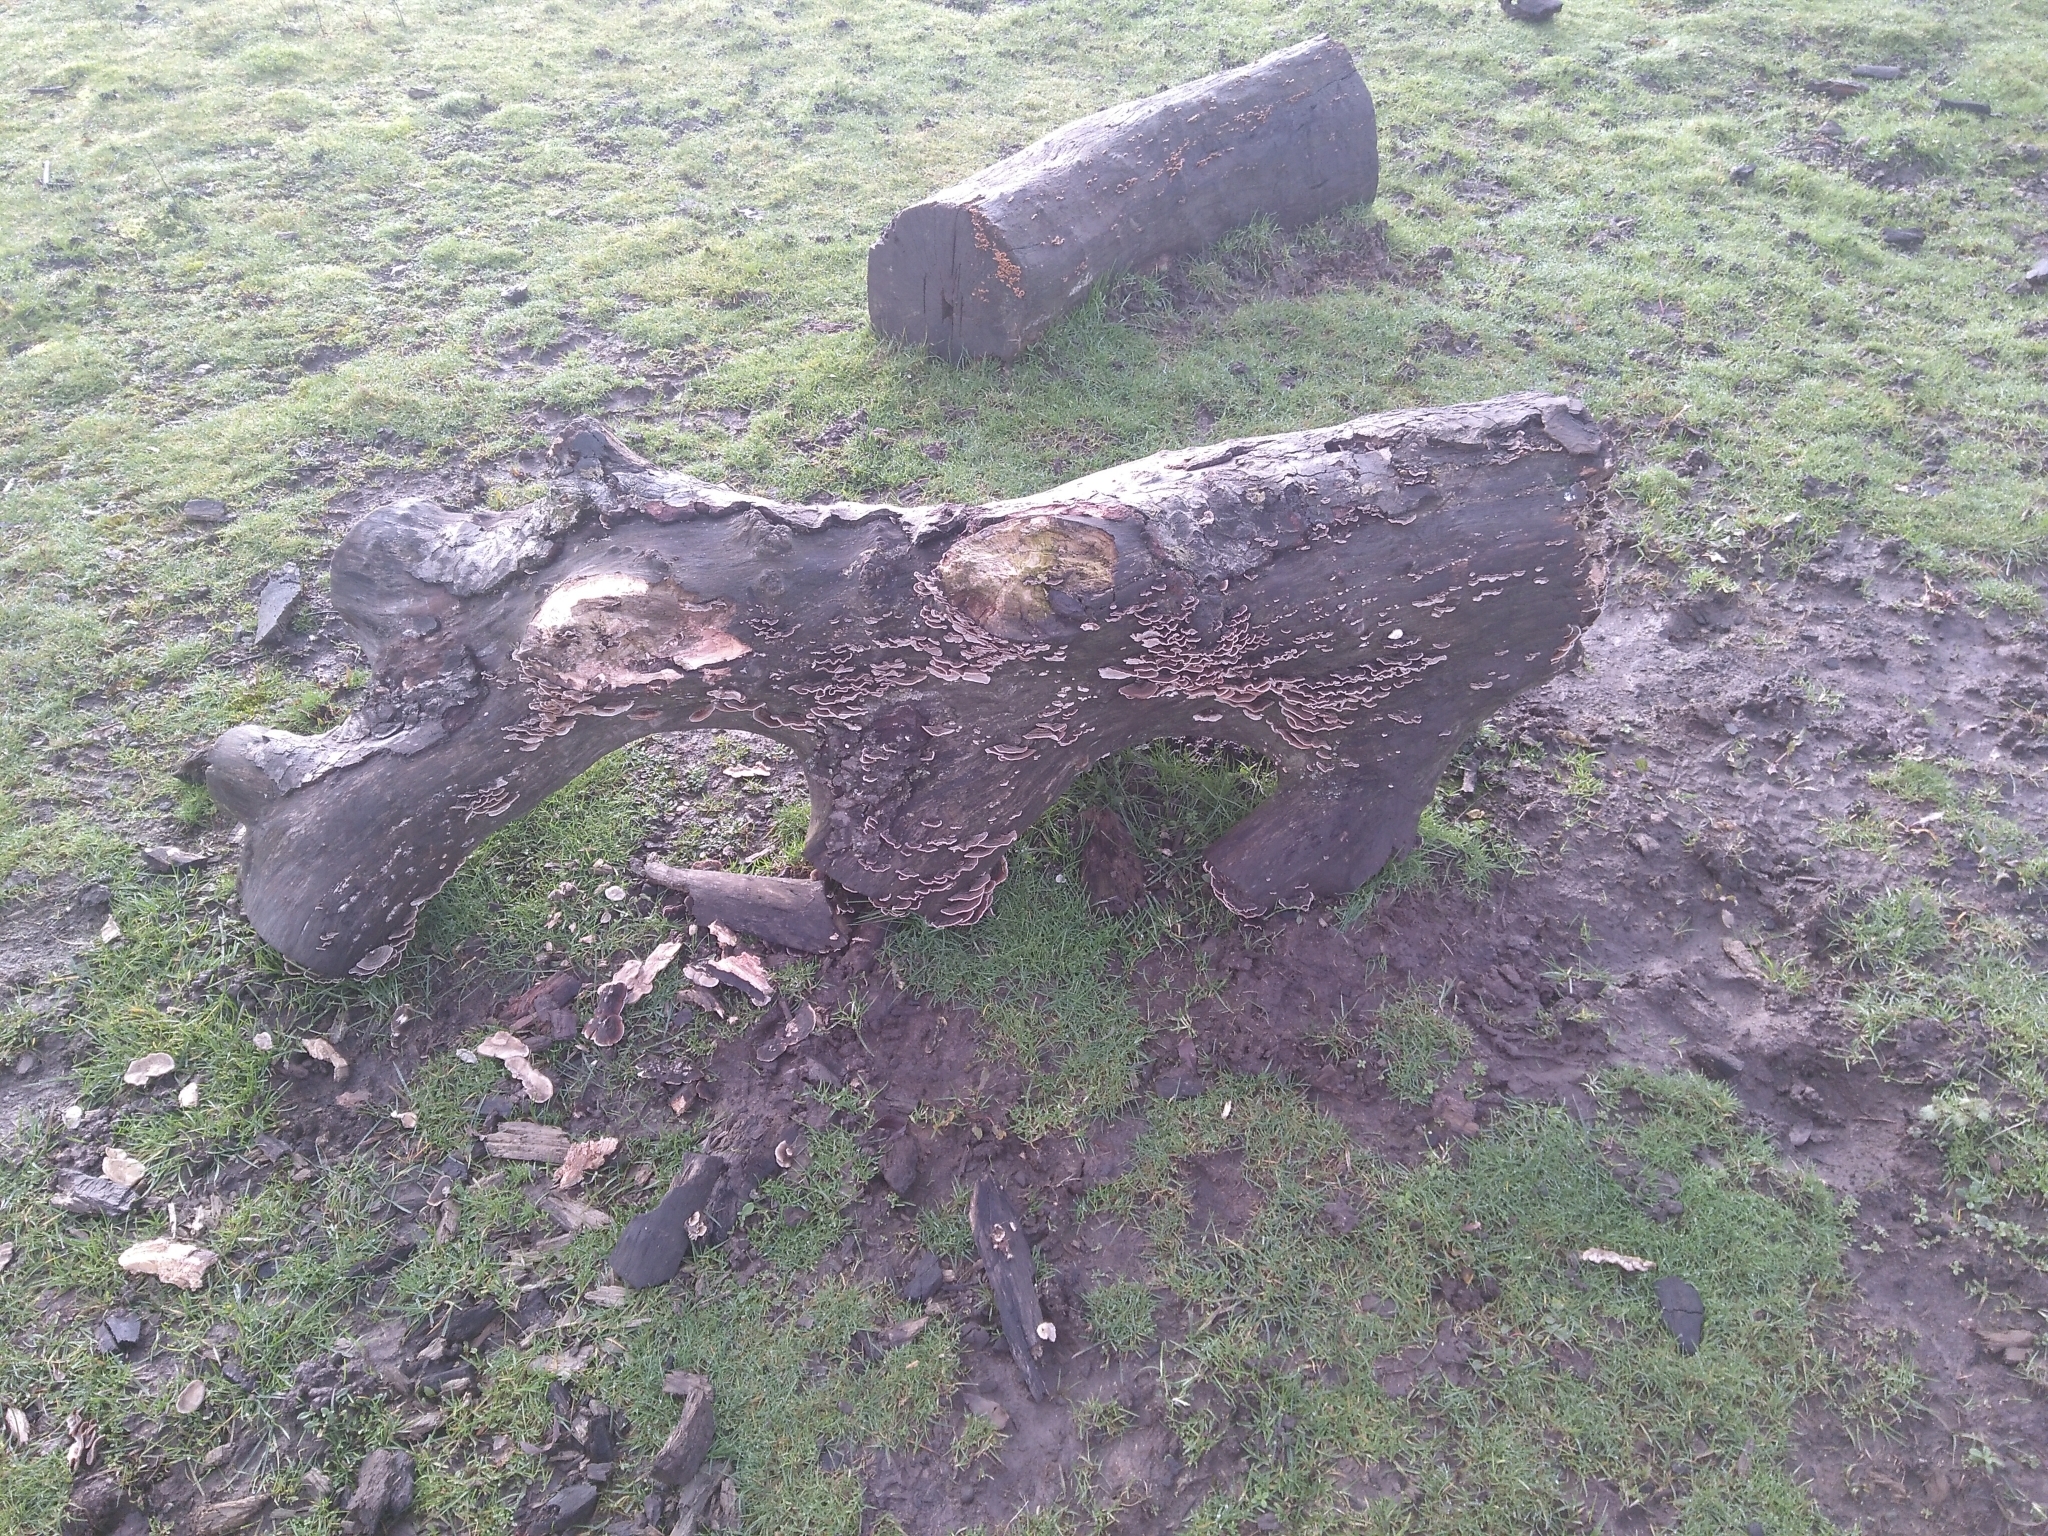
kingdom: Fungi
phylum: Basidiomycota
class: Agaricomycetes
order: Polyporales
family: Polyporaceae
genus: Trametes
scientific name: Trametes versicolor
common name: Turkeytail
